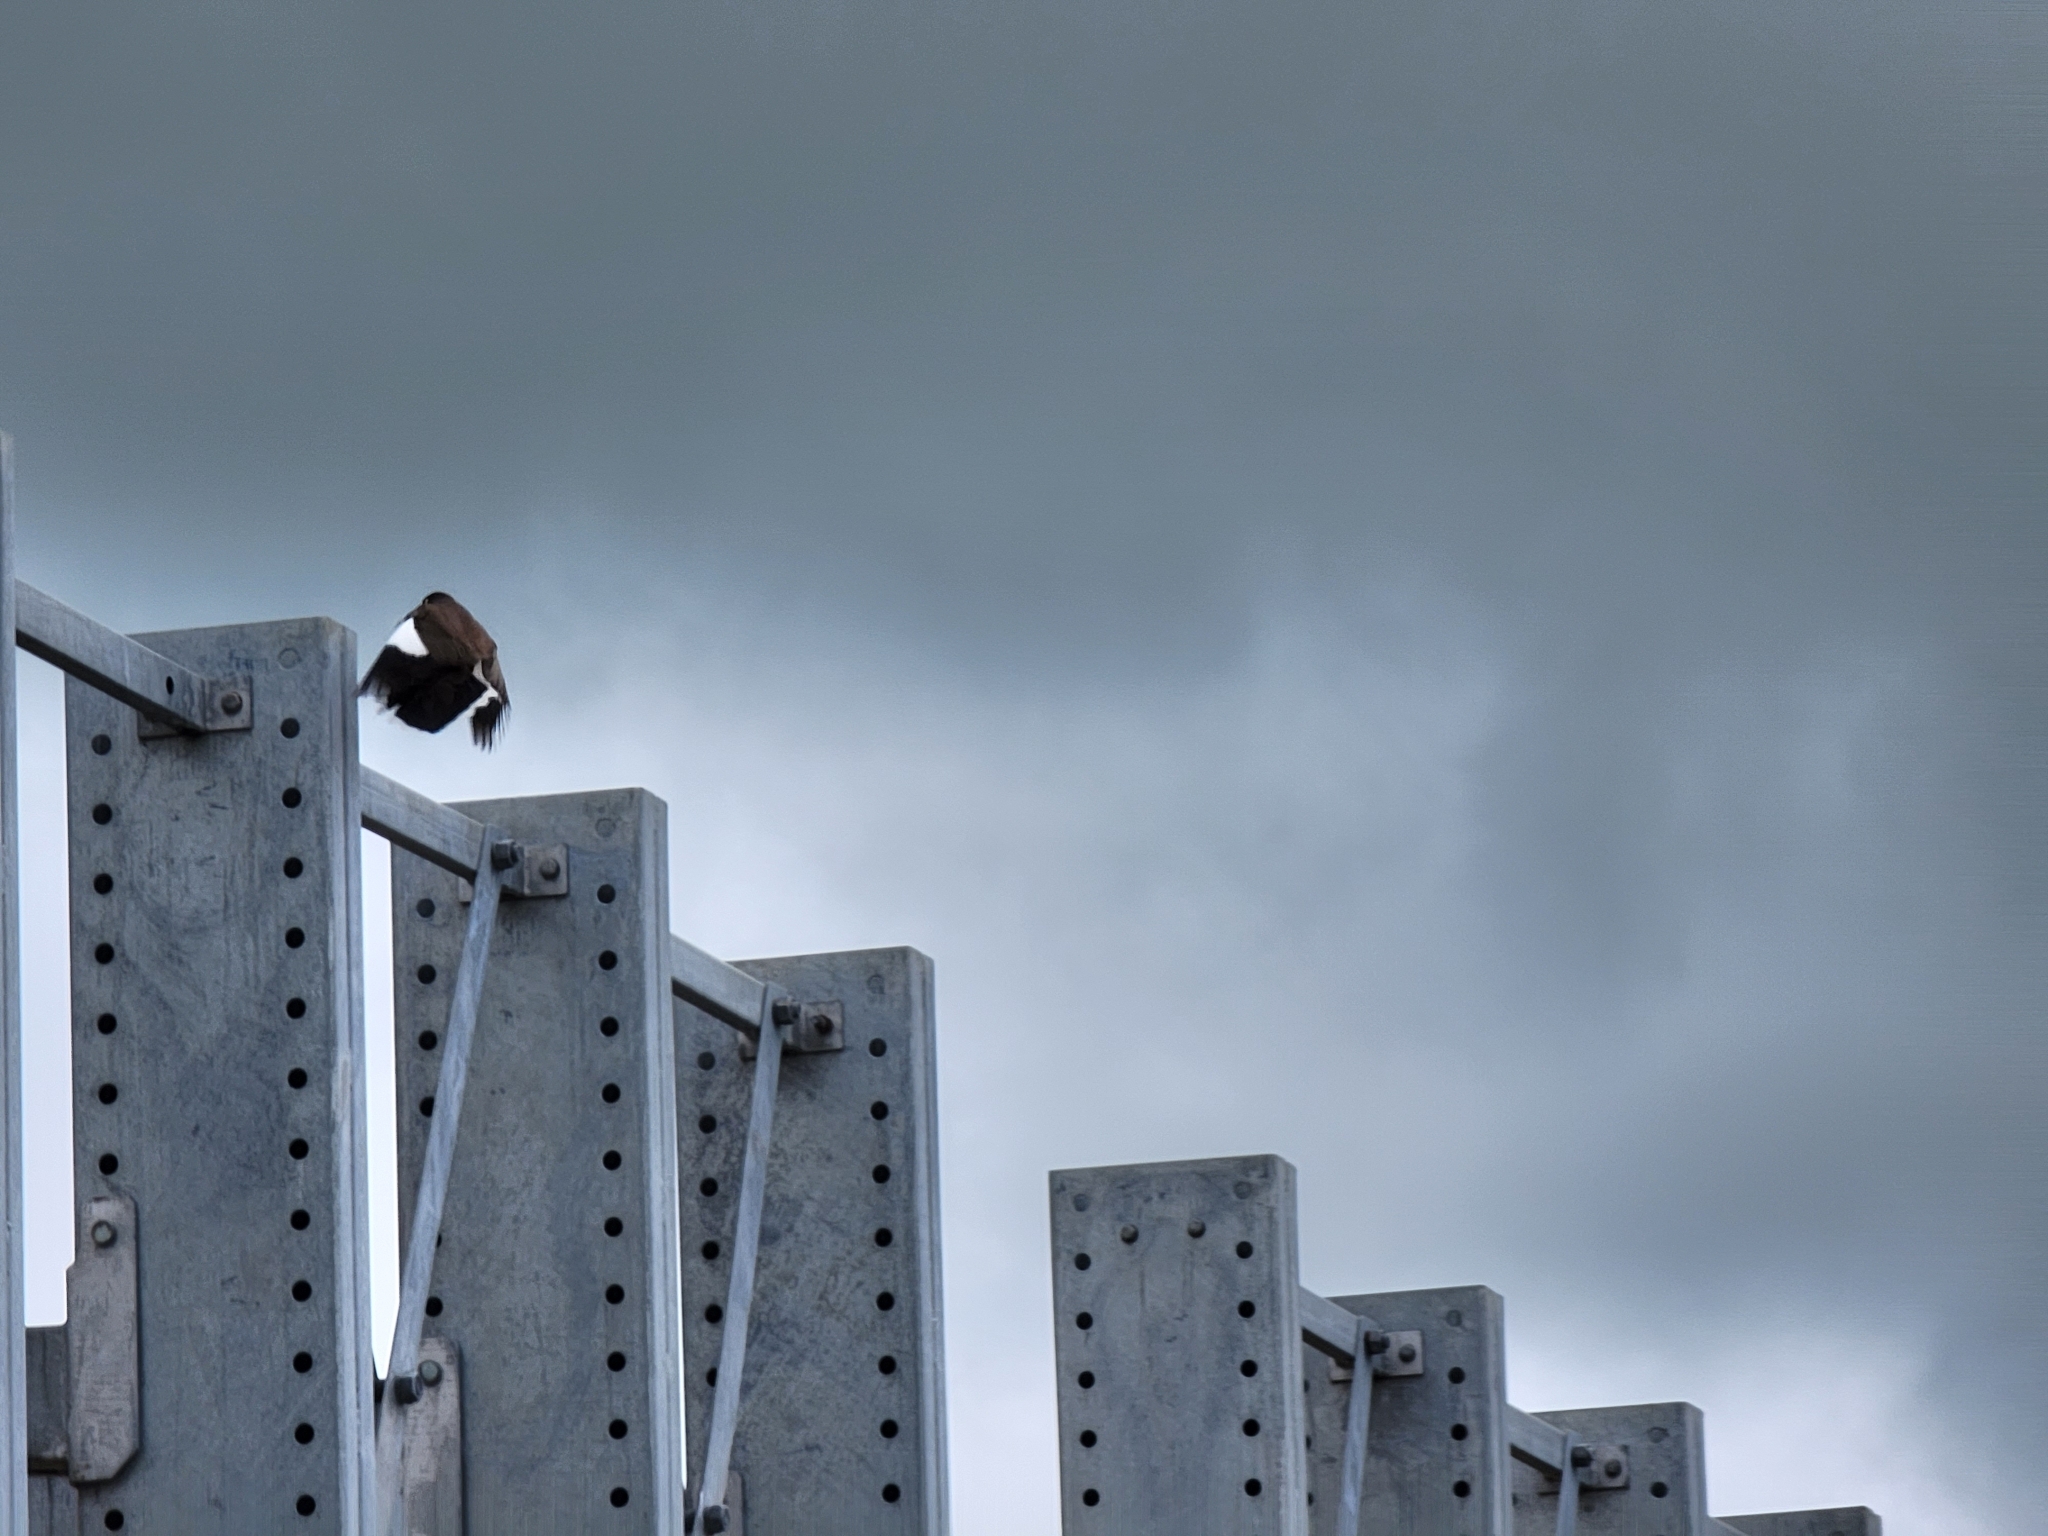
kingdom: Animalia
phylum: Chordata
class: Aves
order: Passeriformes
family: Sturnidae
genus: Acridotheres
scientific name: Acridotheres tristis
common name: Common myna
